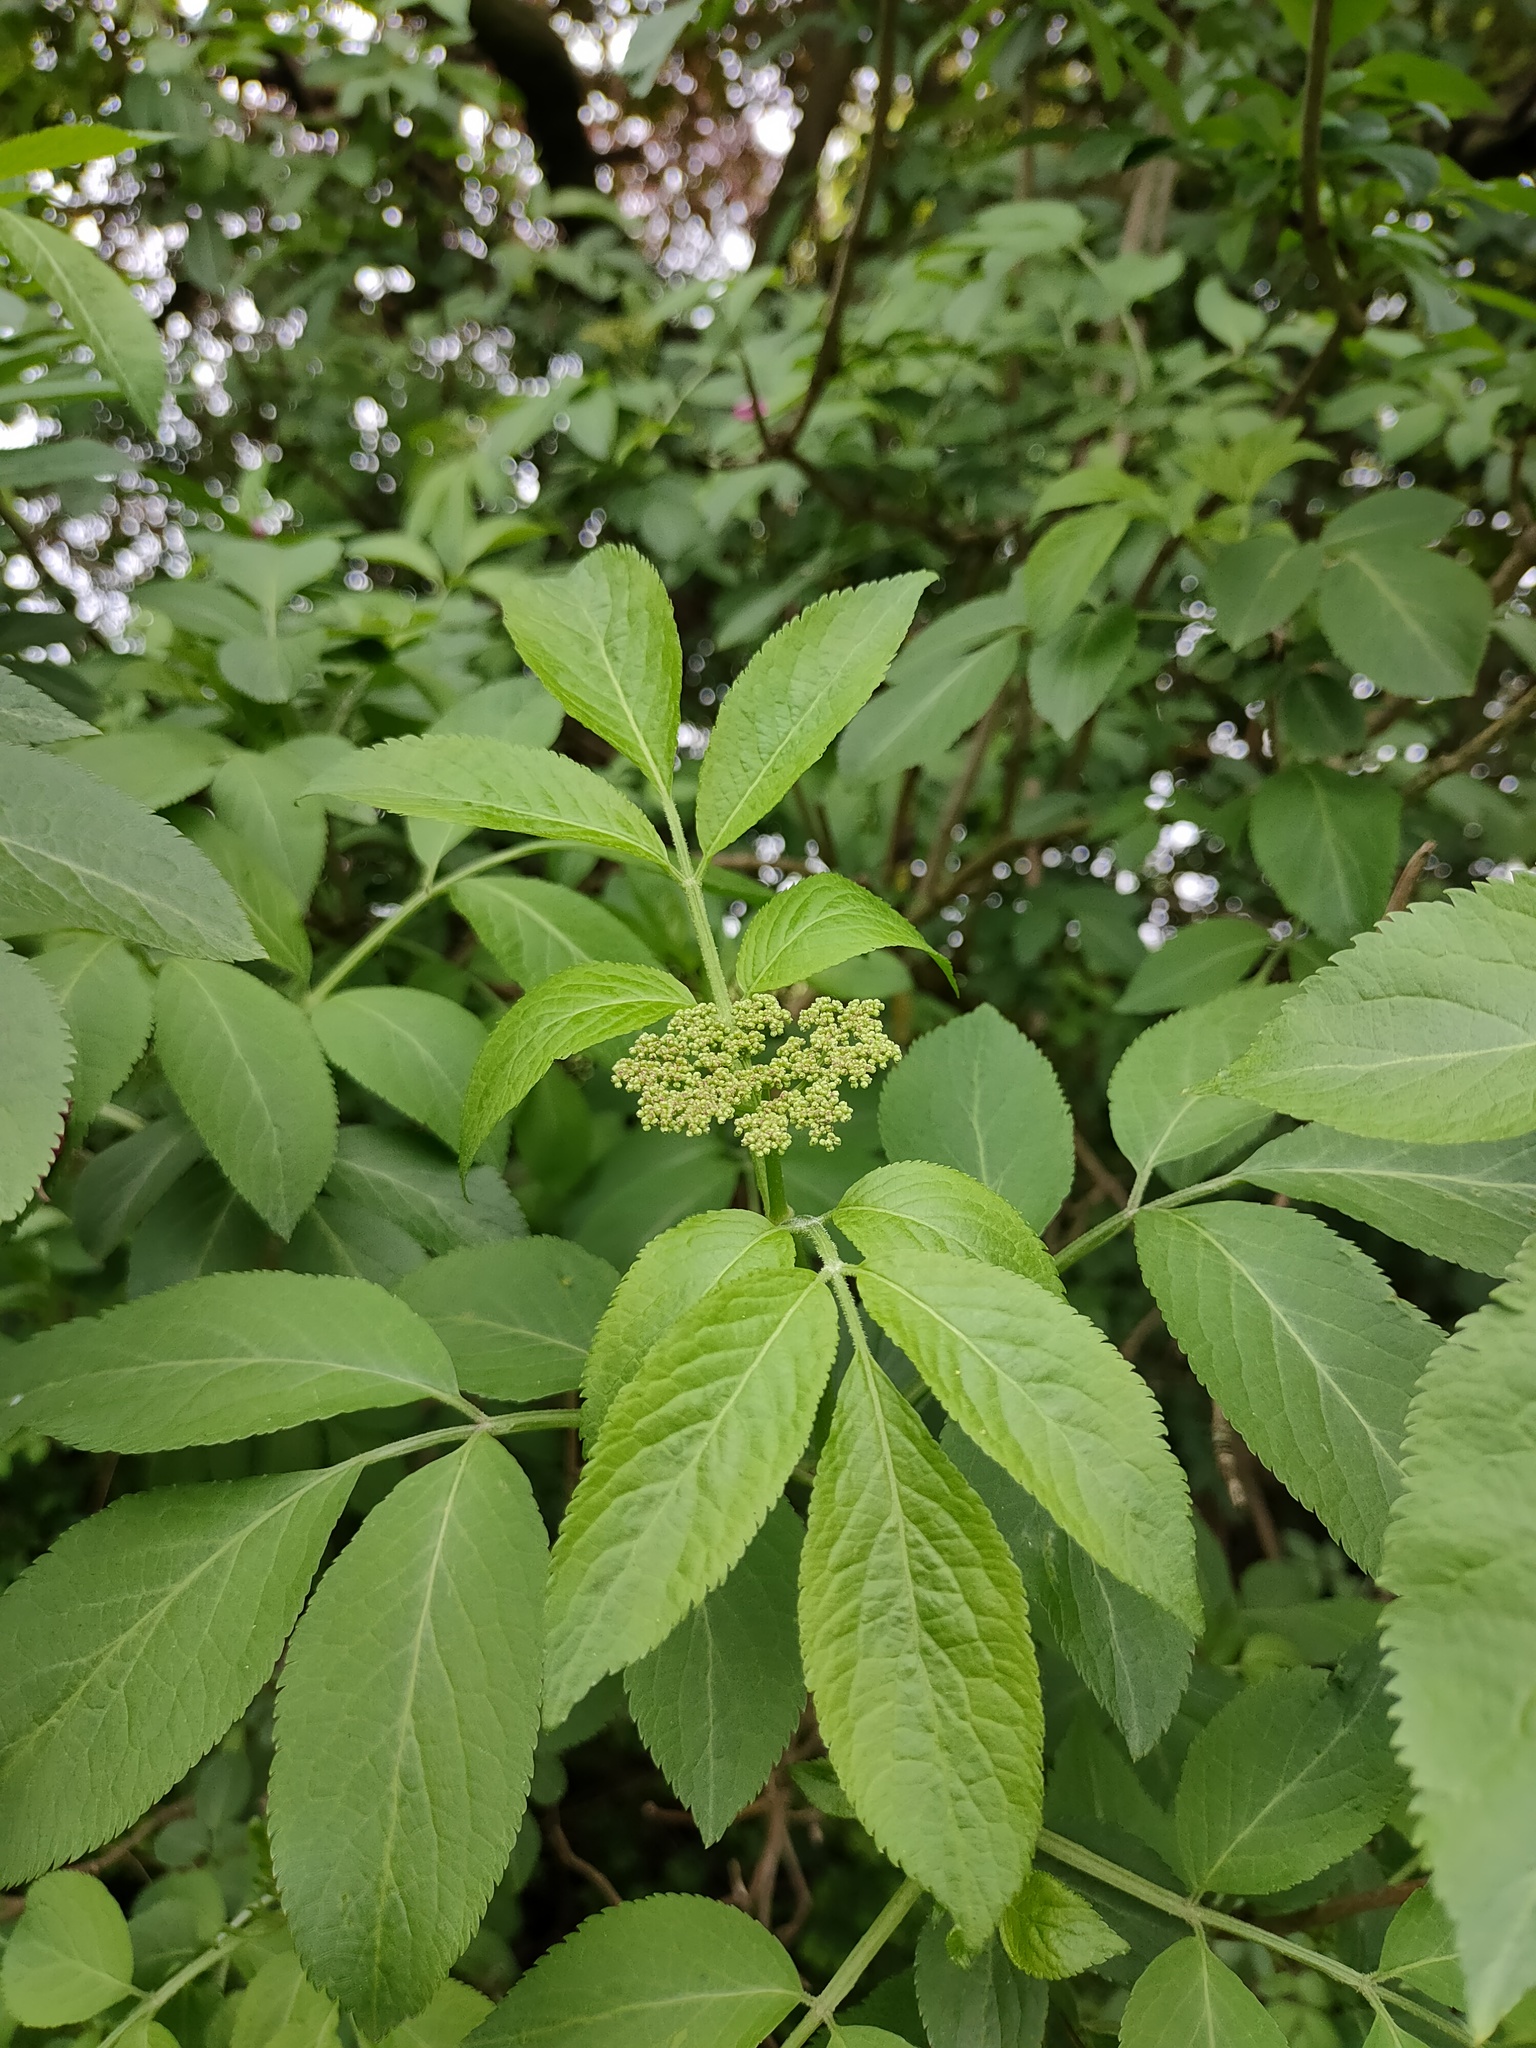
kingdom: Plantae
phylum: Tracheophyta
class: Magnoliopsida
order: Dipsacales
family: Viburnaceae
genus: Sambucus
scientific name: Sambucus nigra
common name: Elder
